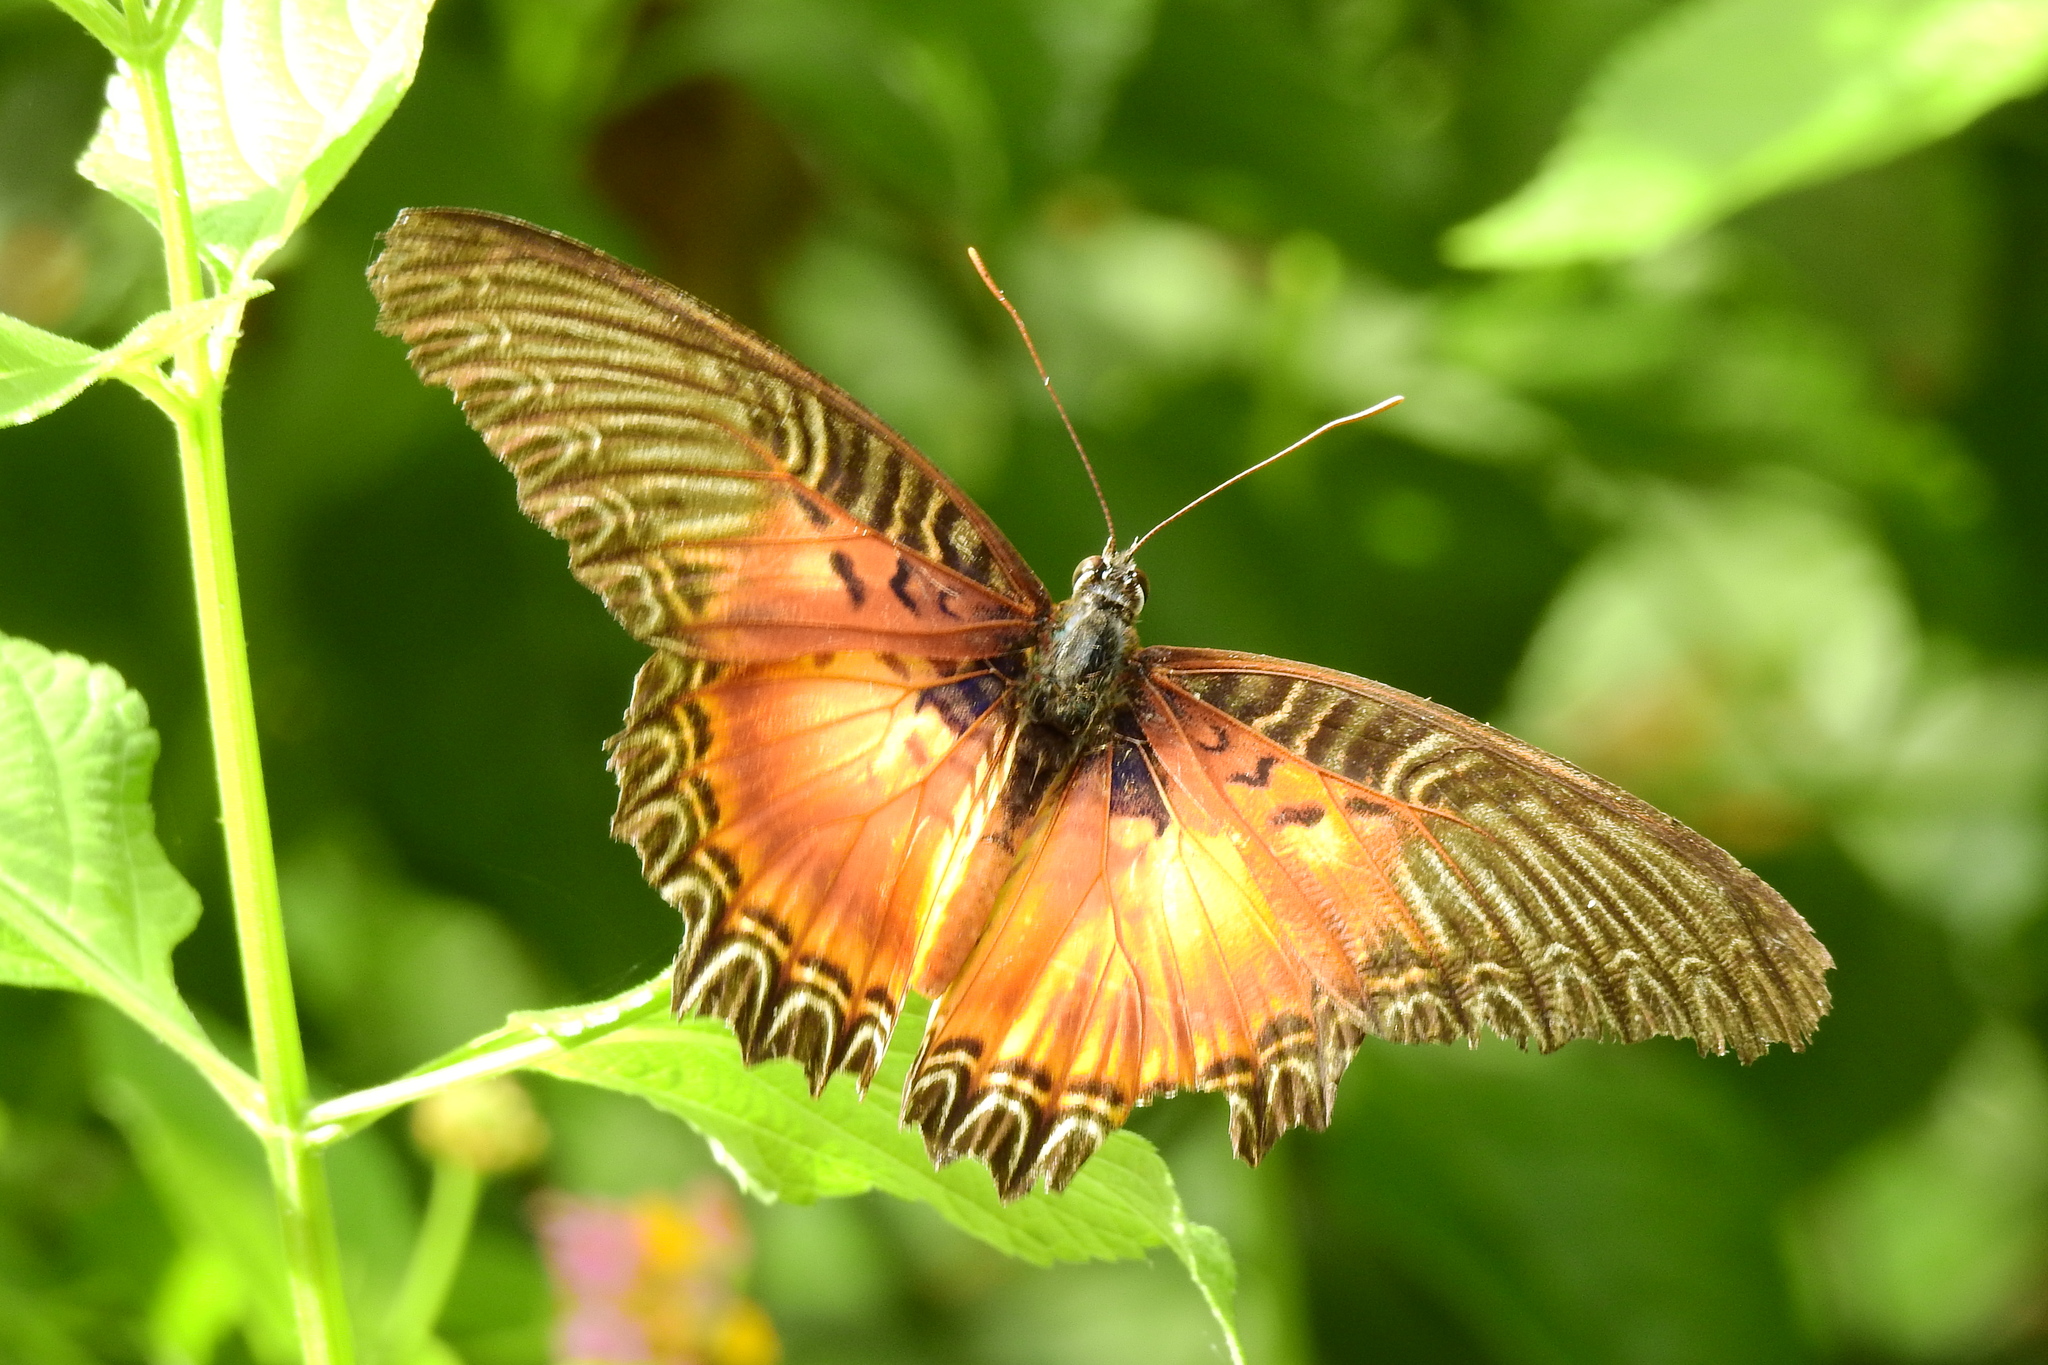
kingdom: Animalia
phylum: Arthropoda
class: Insecta
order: Lepidoptera
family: Nymphalidae
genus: Cethosia
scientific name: Cethosia myrina
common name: Violet lacewing
